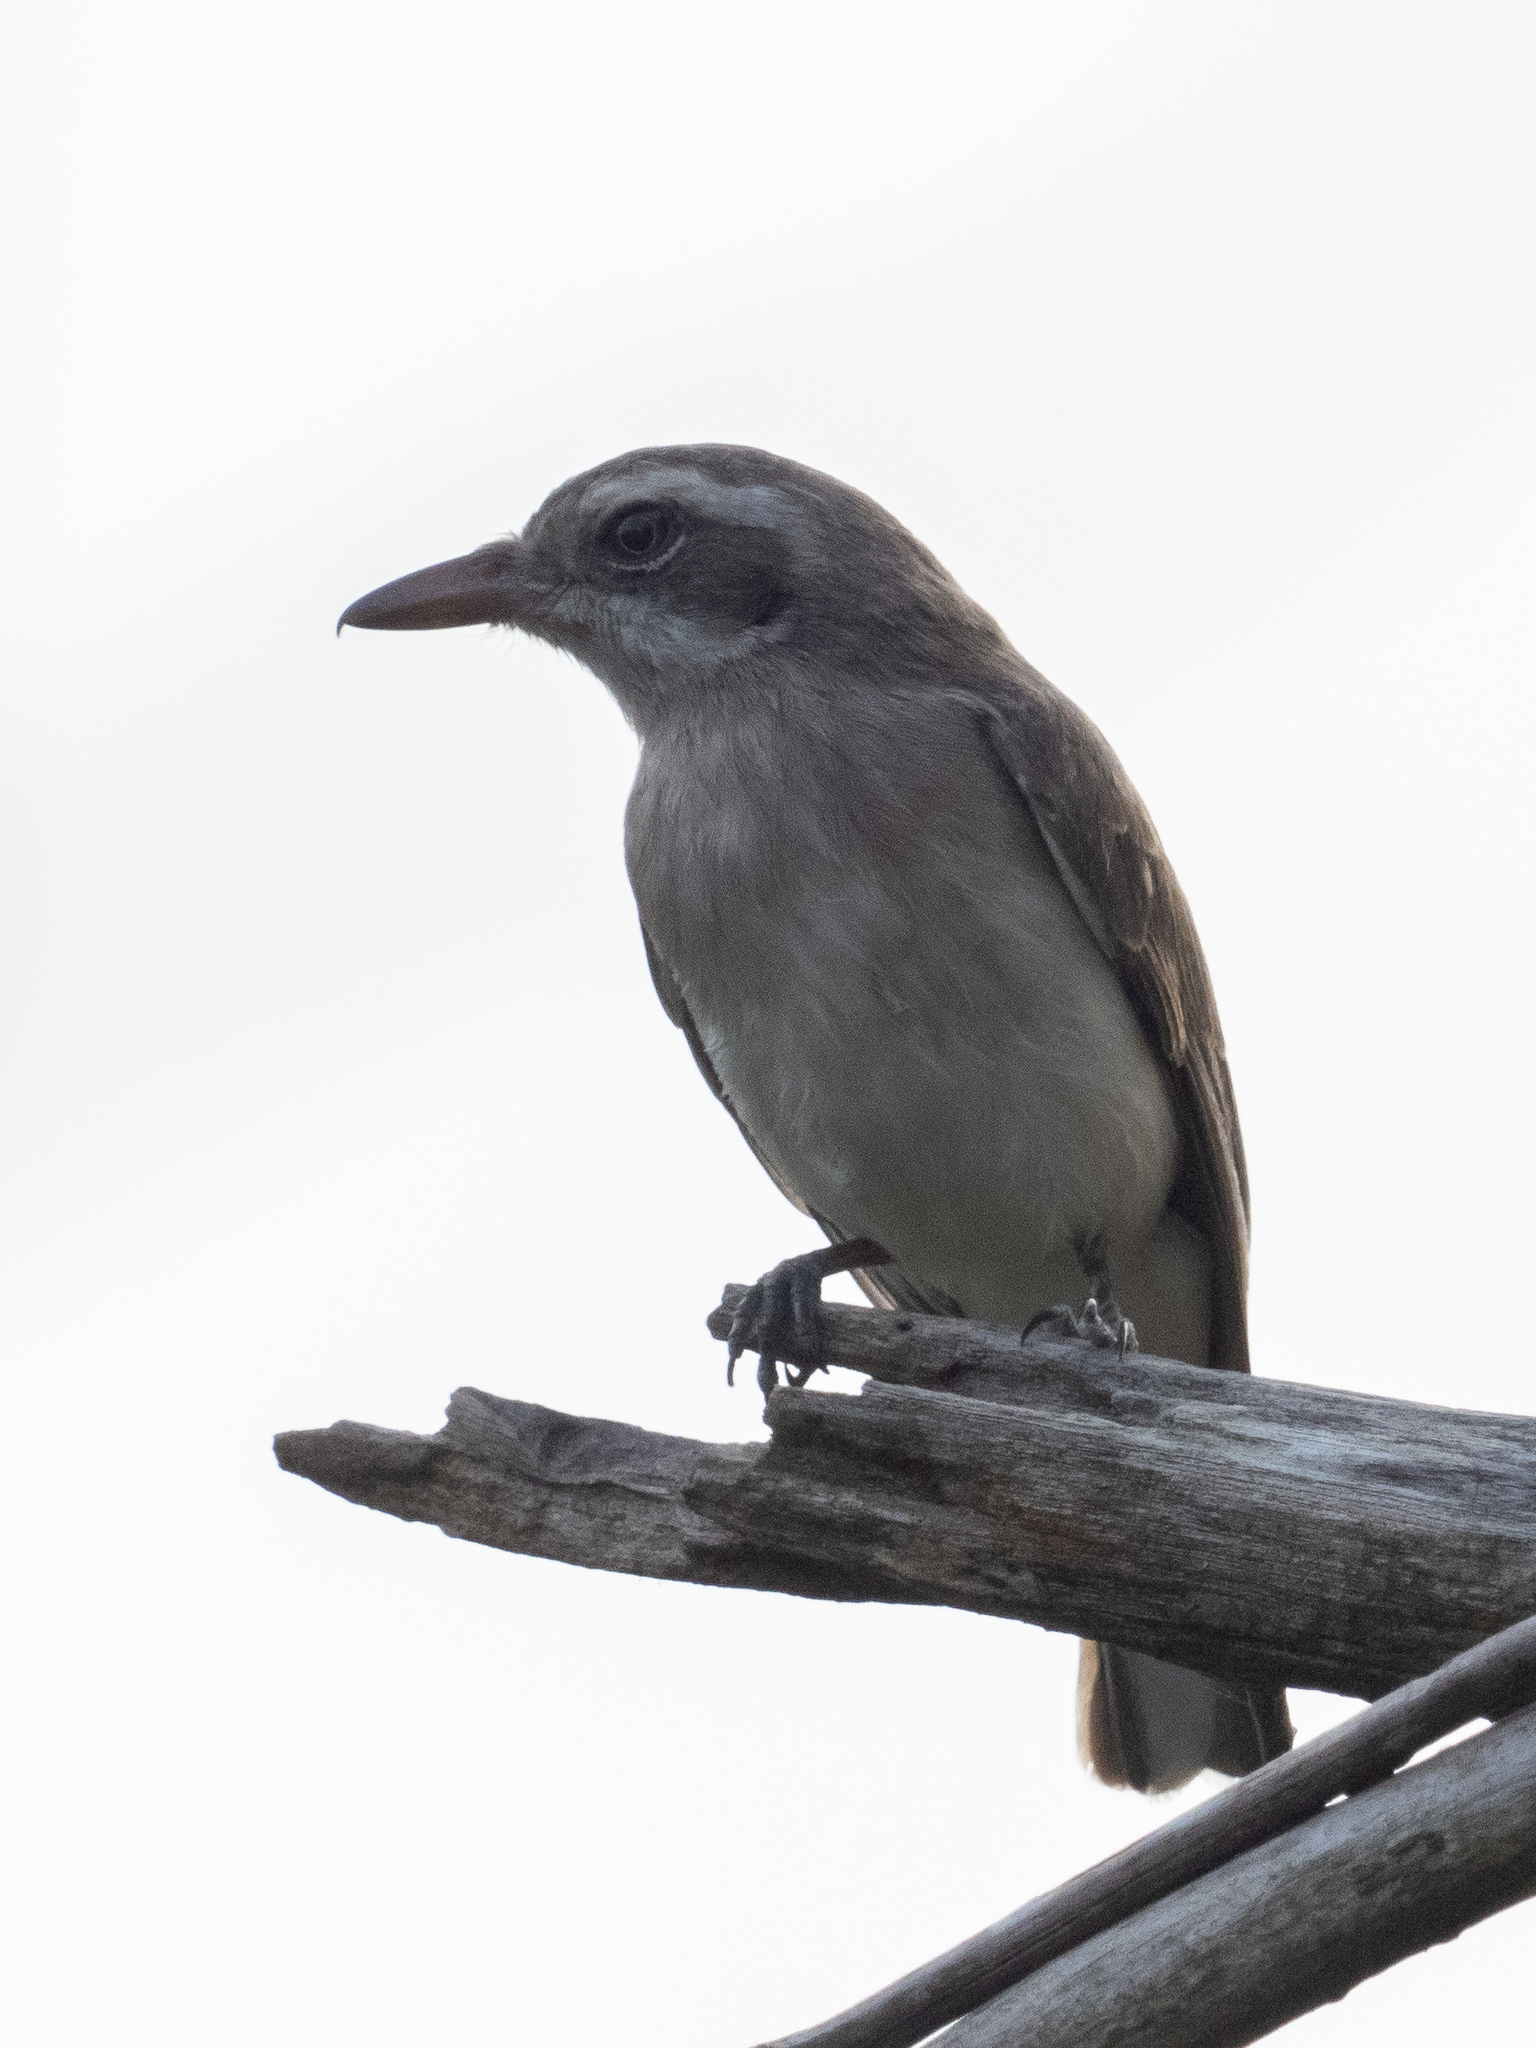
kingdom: Animalia
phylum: Chordata
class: Aves
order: Passeriformes
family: Tephrodornithidae
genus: Tephrodornis
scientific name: Tephrodornis affinis
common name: Sri lanka woodshrike
